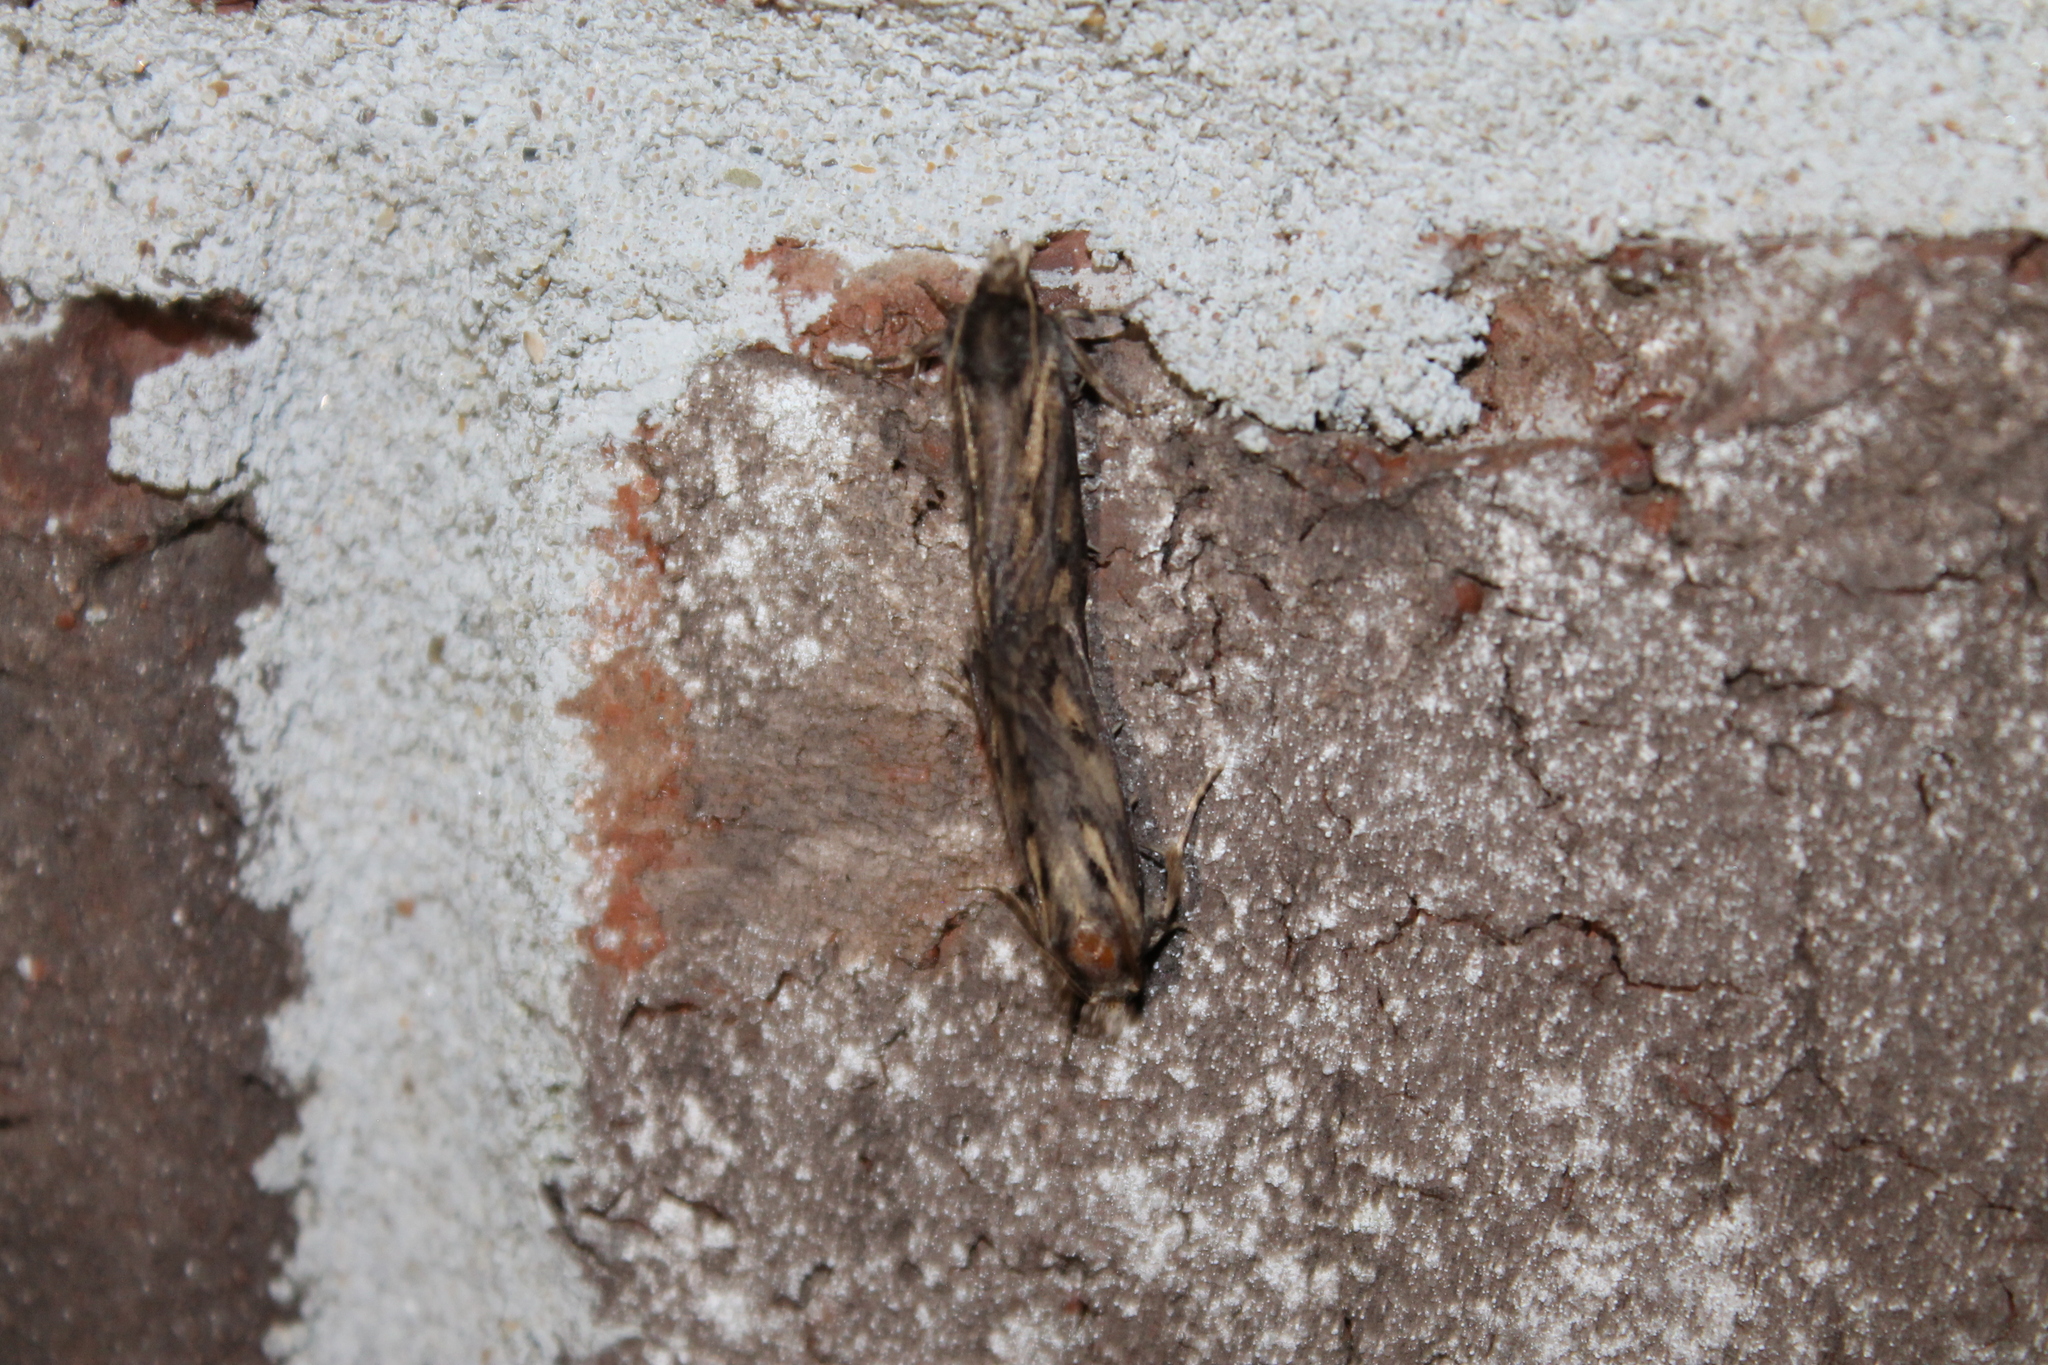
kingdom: Animalia
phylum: Arthropoda
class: Insecta
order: Lepidoptera
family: Tineidae
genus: Acrolophus
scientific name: Acrolophus popeanella
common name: Clemens' grass tubeworm moth
